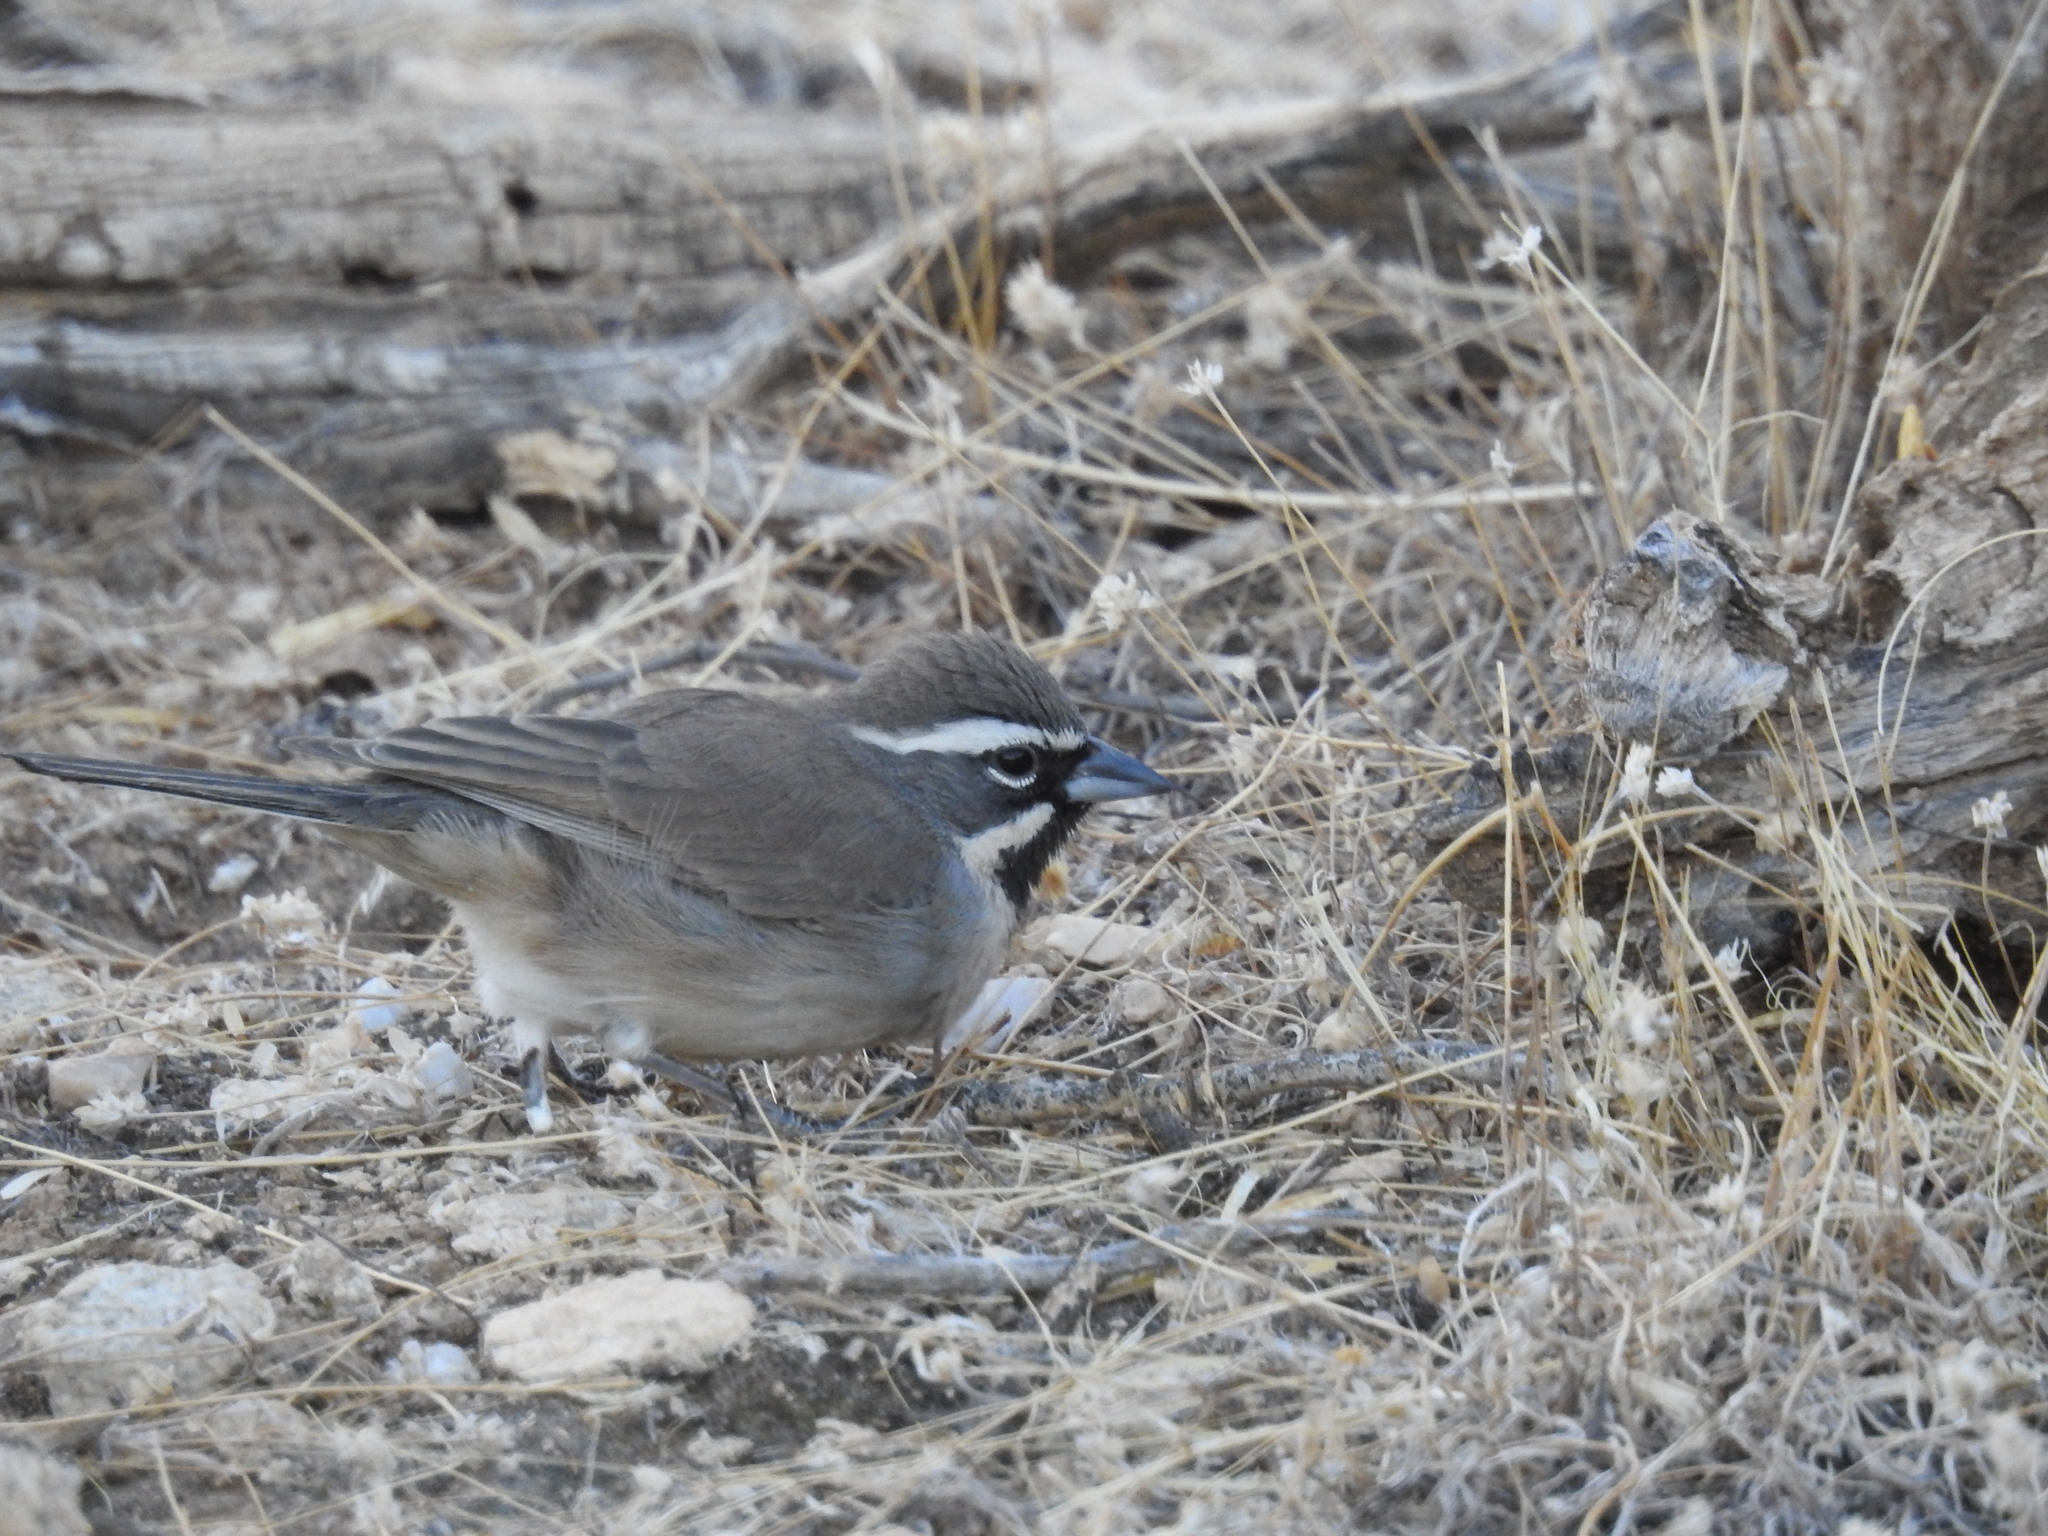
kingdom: Animalia
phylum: Chordata
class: Aves
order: Passeriformes
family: Passerellidae
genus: Amphispiza
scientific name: Amphispiza bilineata
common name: Black-throated sparrow
